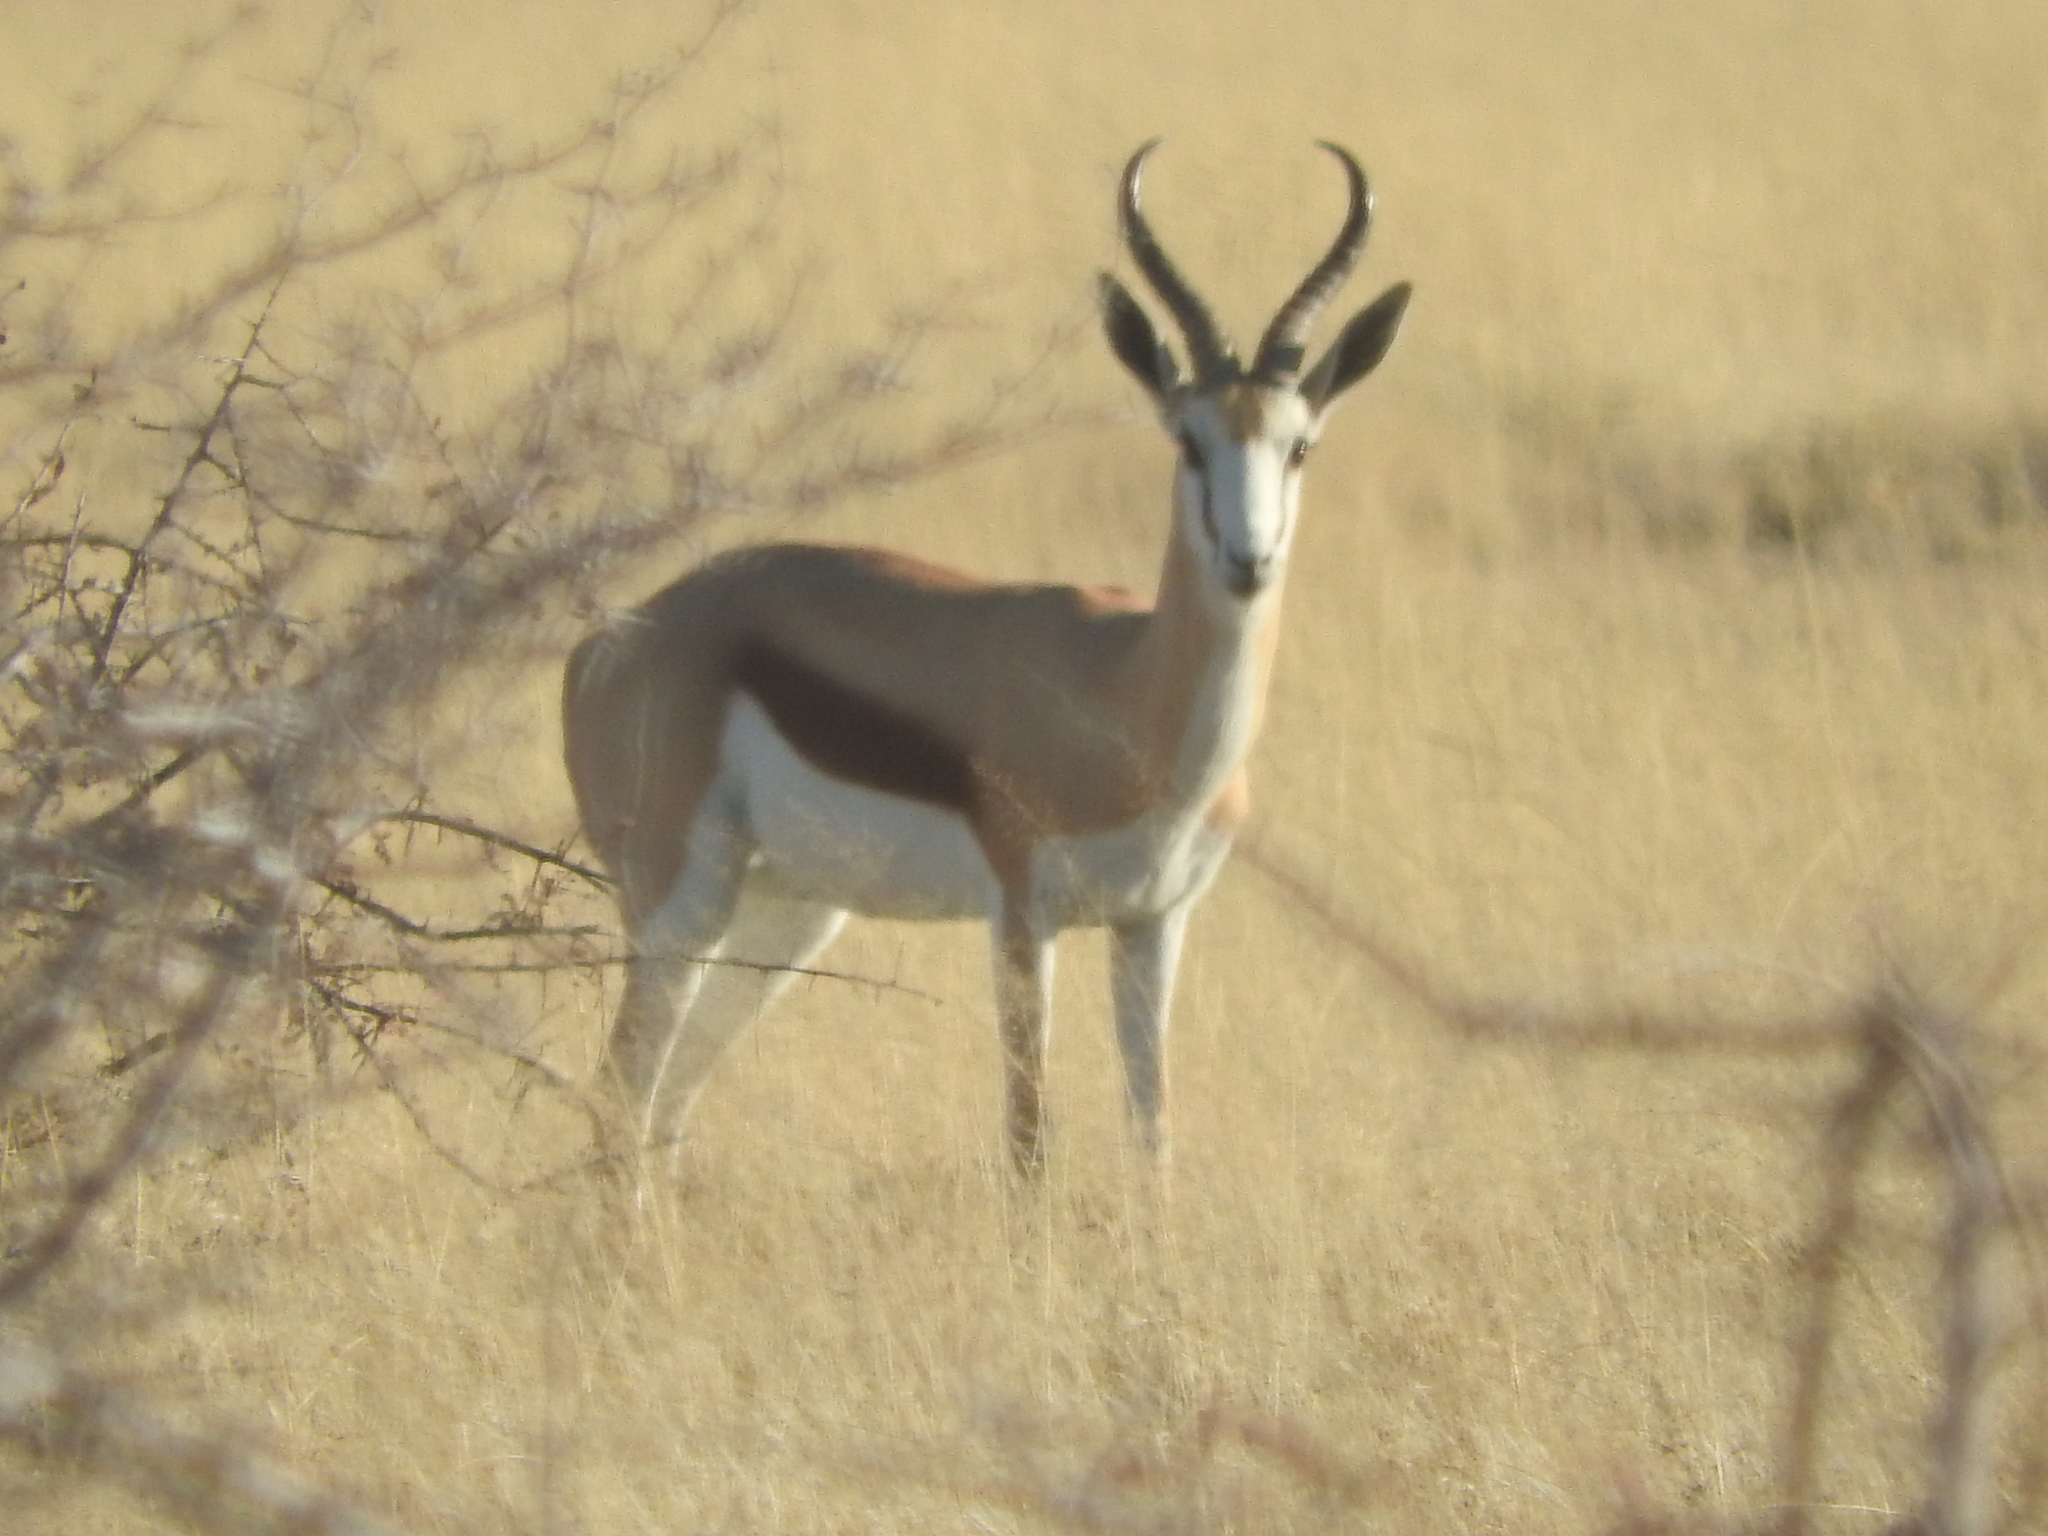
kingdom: Animalia
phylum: Chordata
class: Mammalia
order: Artiodactyla
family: Bovidae
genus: Antidorcas
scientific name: Antidorcas marsupialis
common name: Springbok
